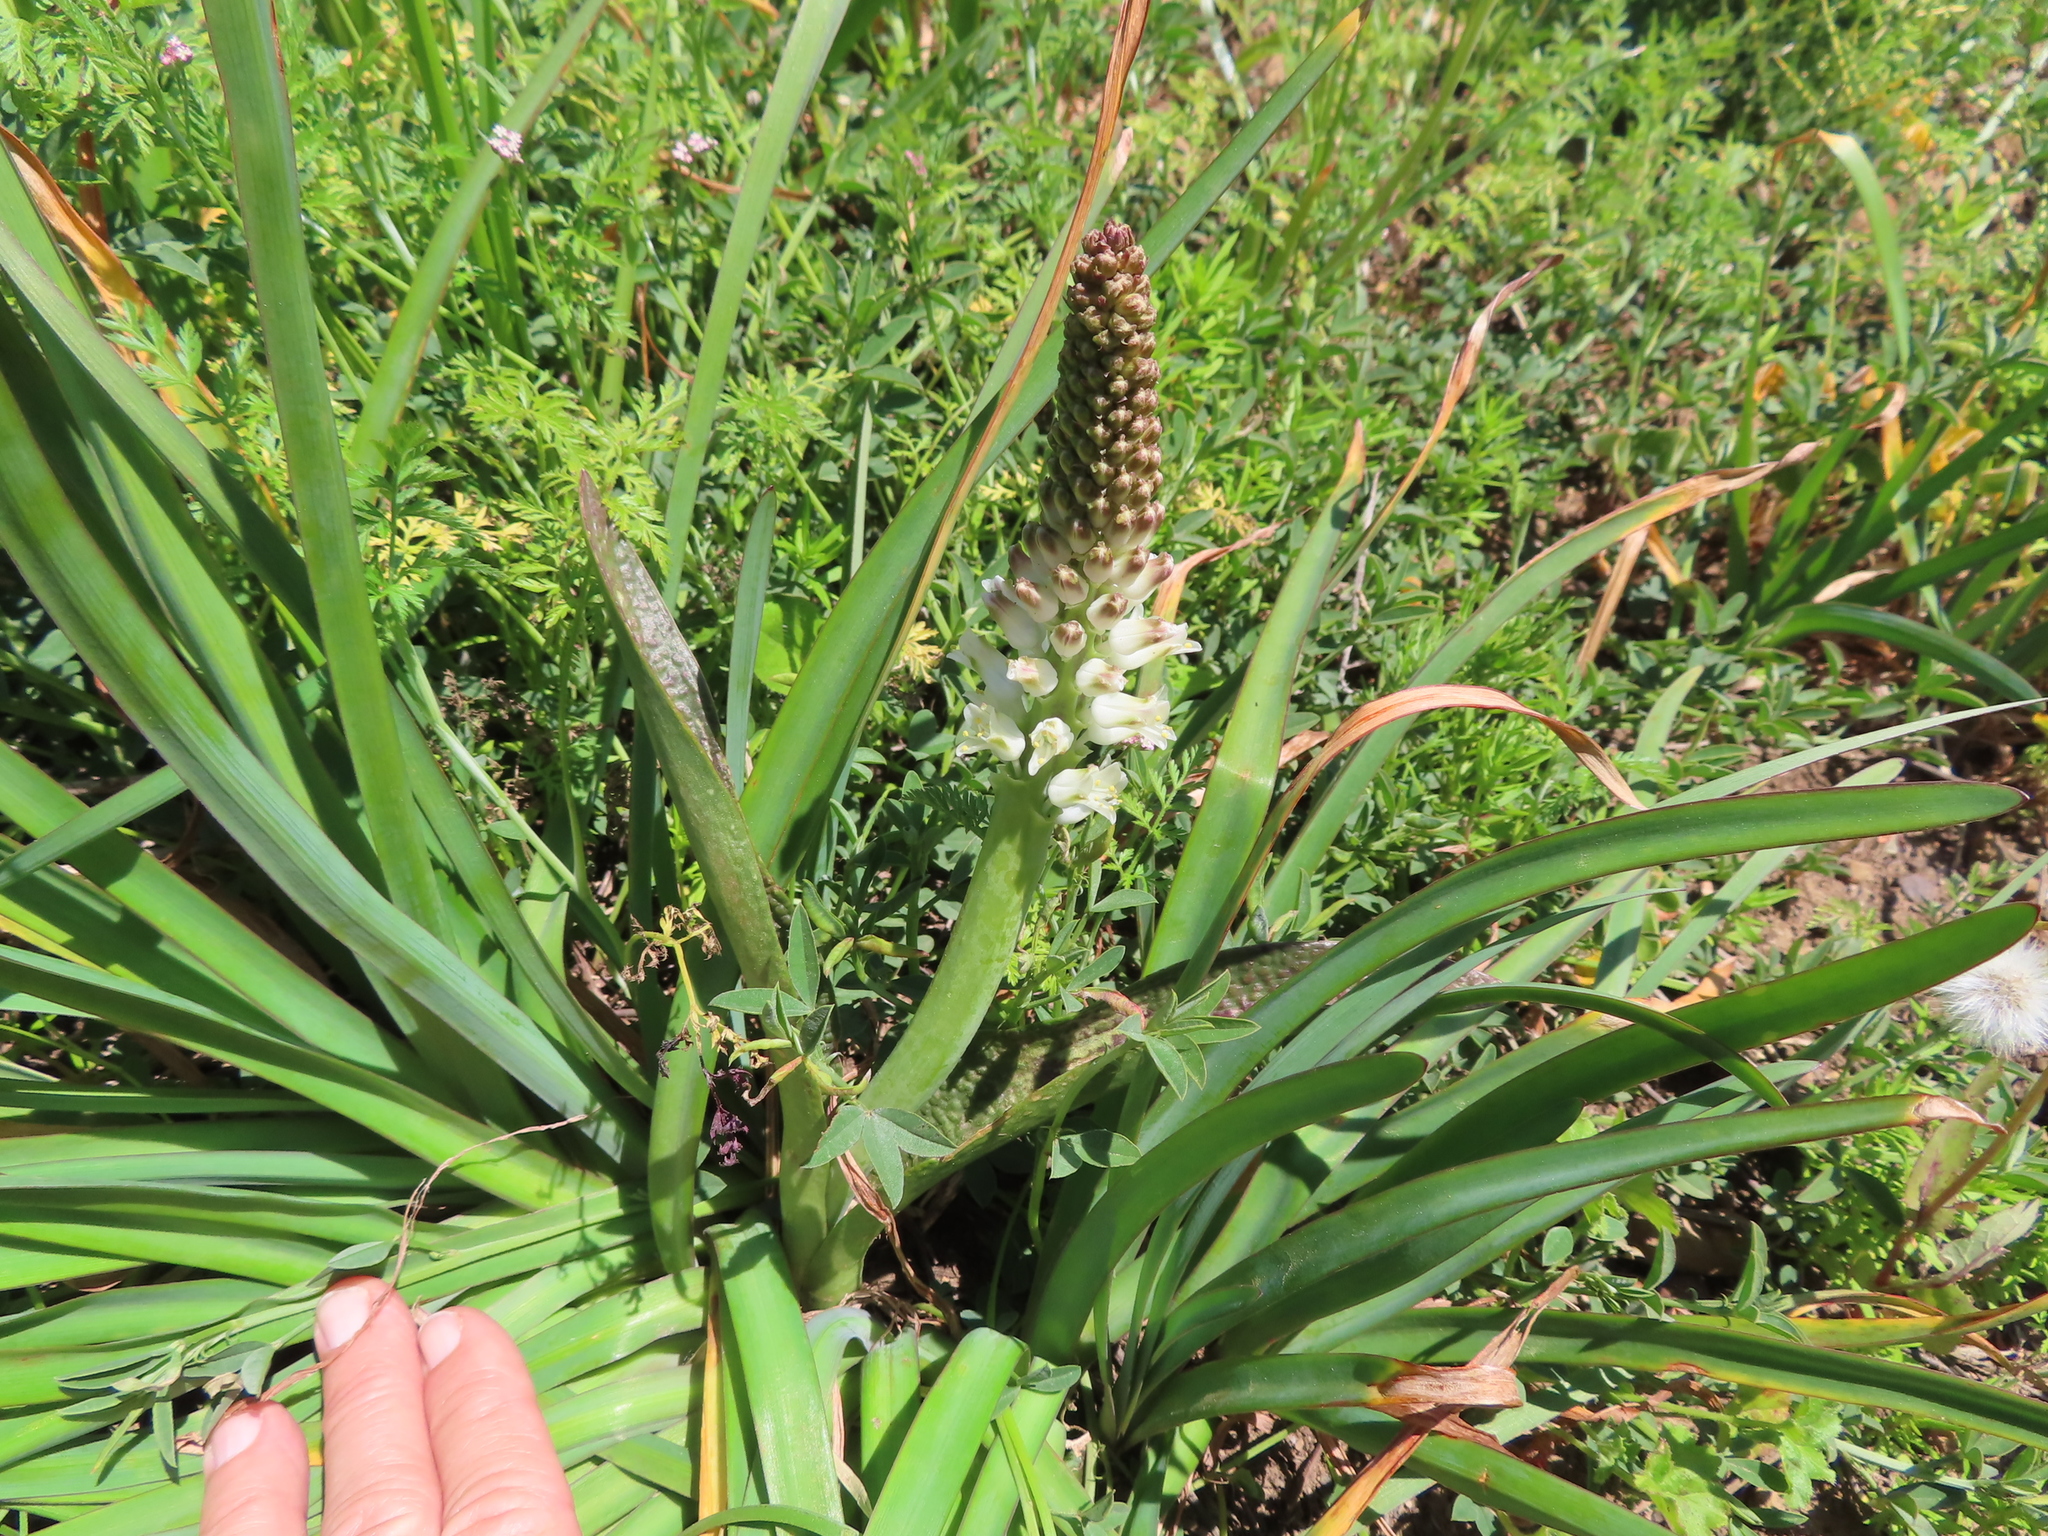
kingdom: Plantae
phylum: Tracheophyta
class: Liliopsida
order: Asparagales
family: Asparagaceae
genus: Lachenalia
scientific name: Lachenalia pallida
